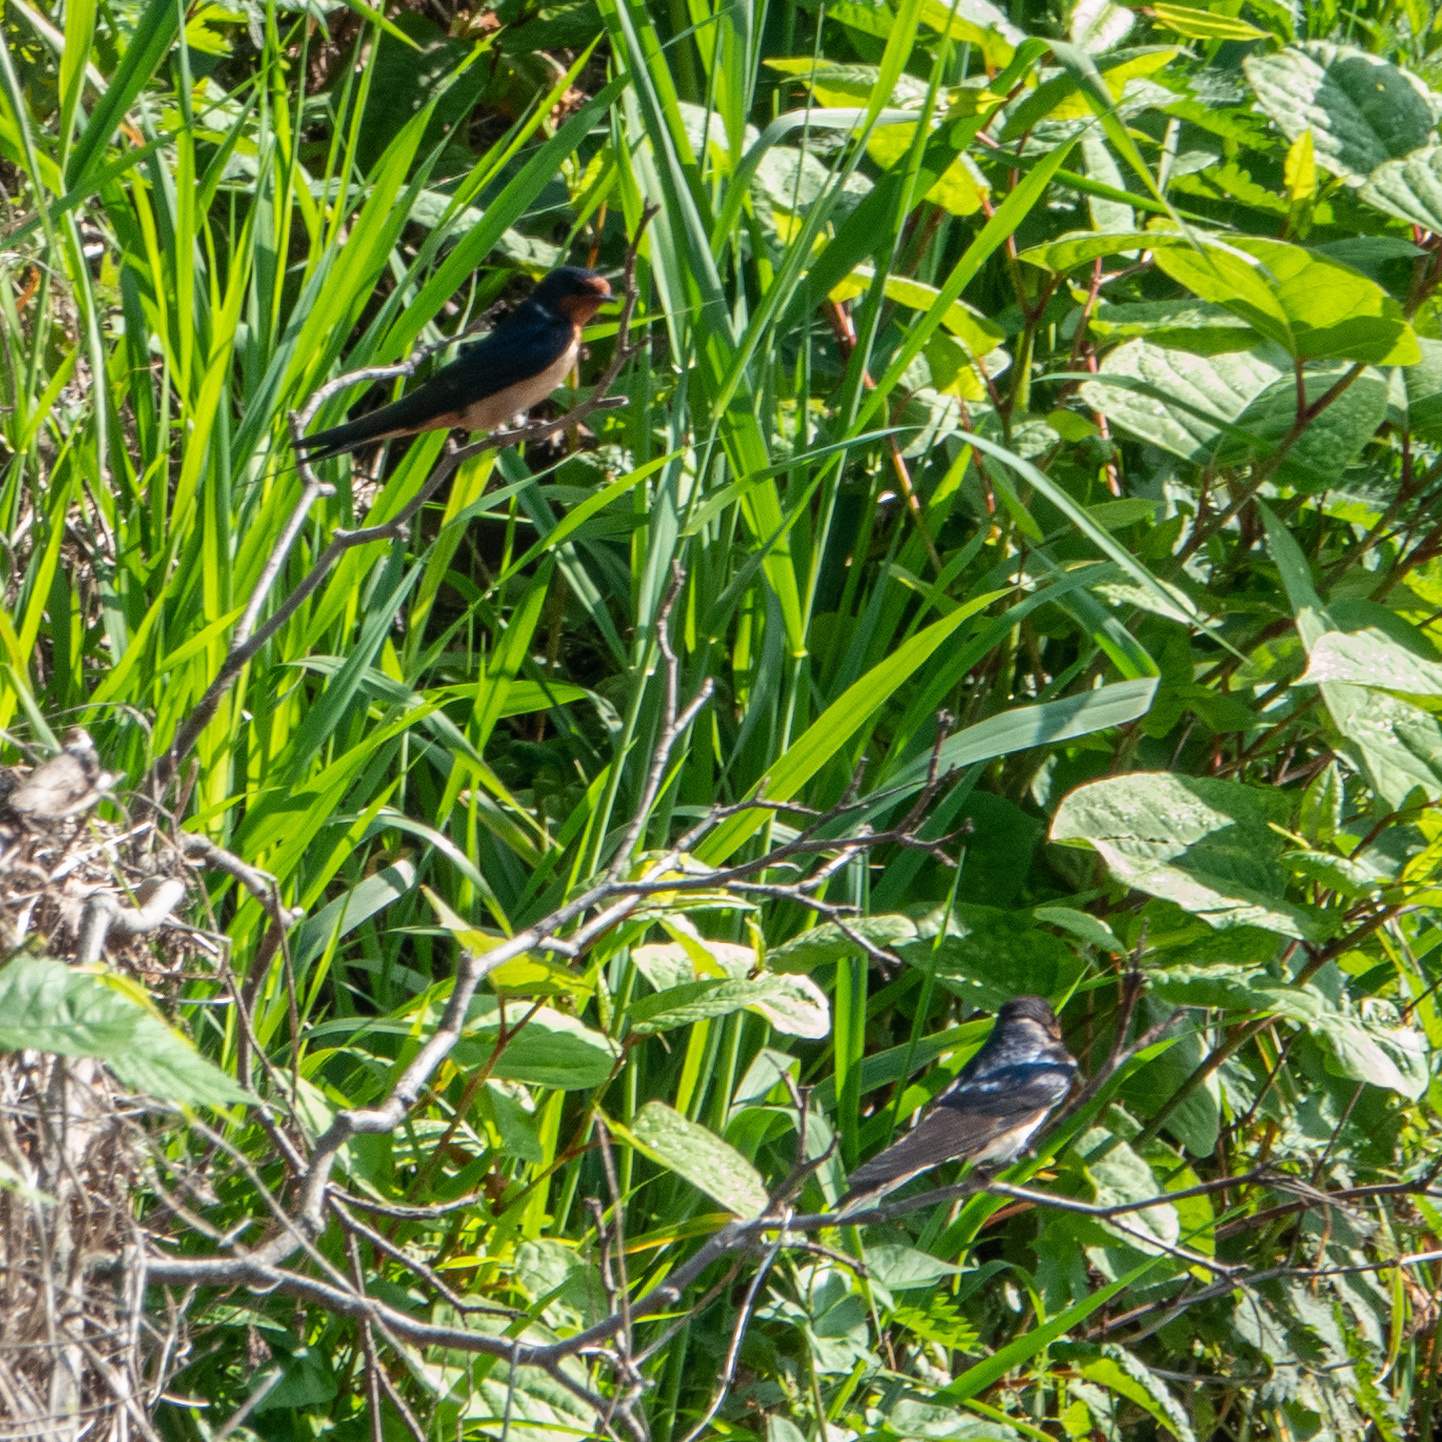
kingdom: Animalia
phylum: Chordata
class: Aves
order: Passeriformes
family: Hirundinidae
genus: Hirundo
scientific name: Hirundo rustica
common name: Barn swallow
